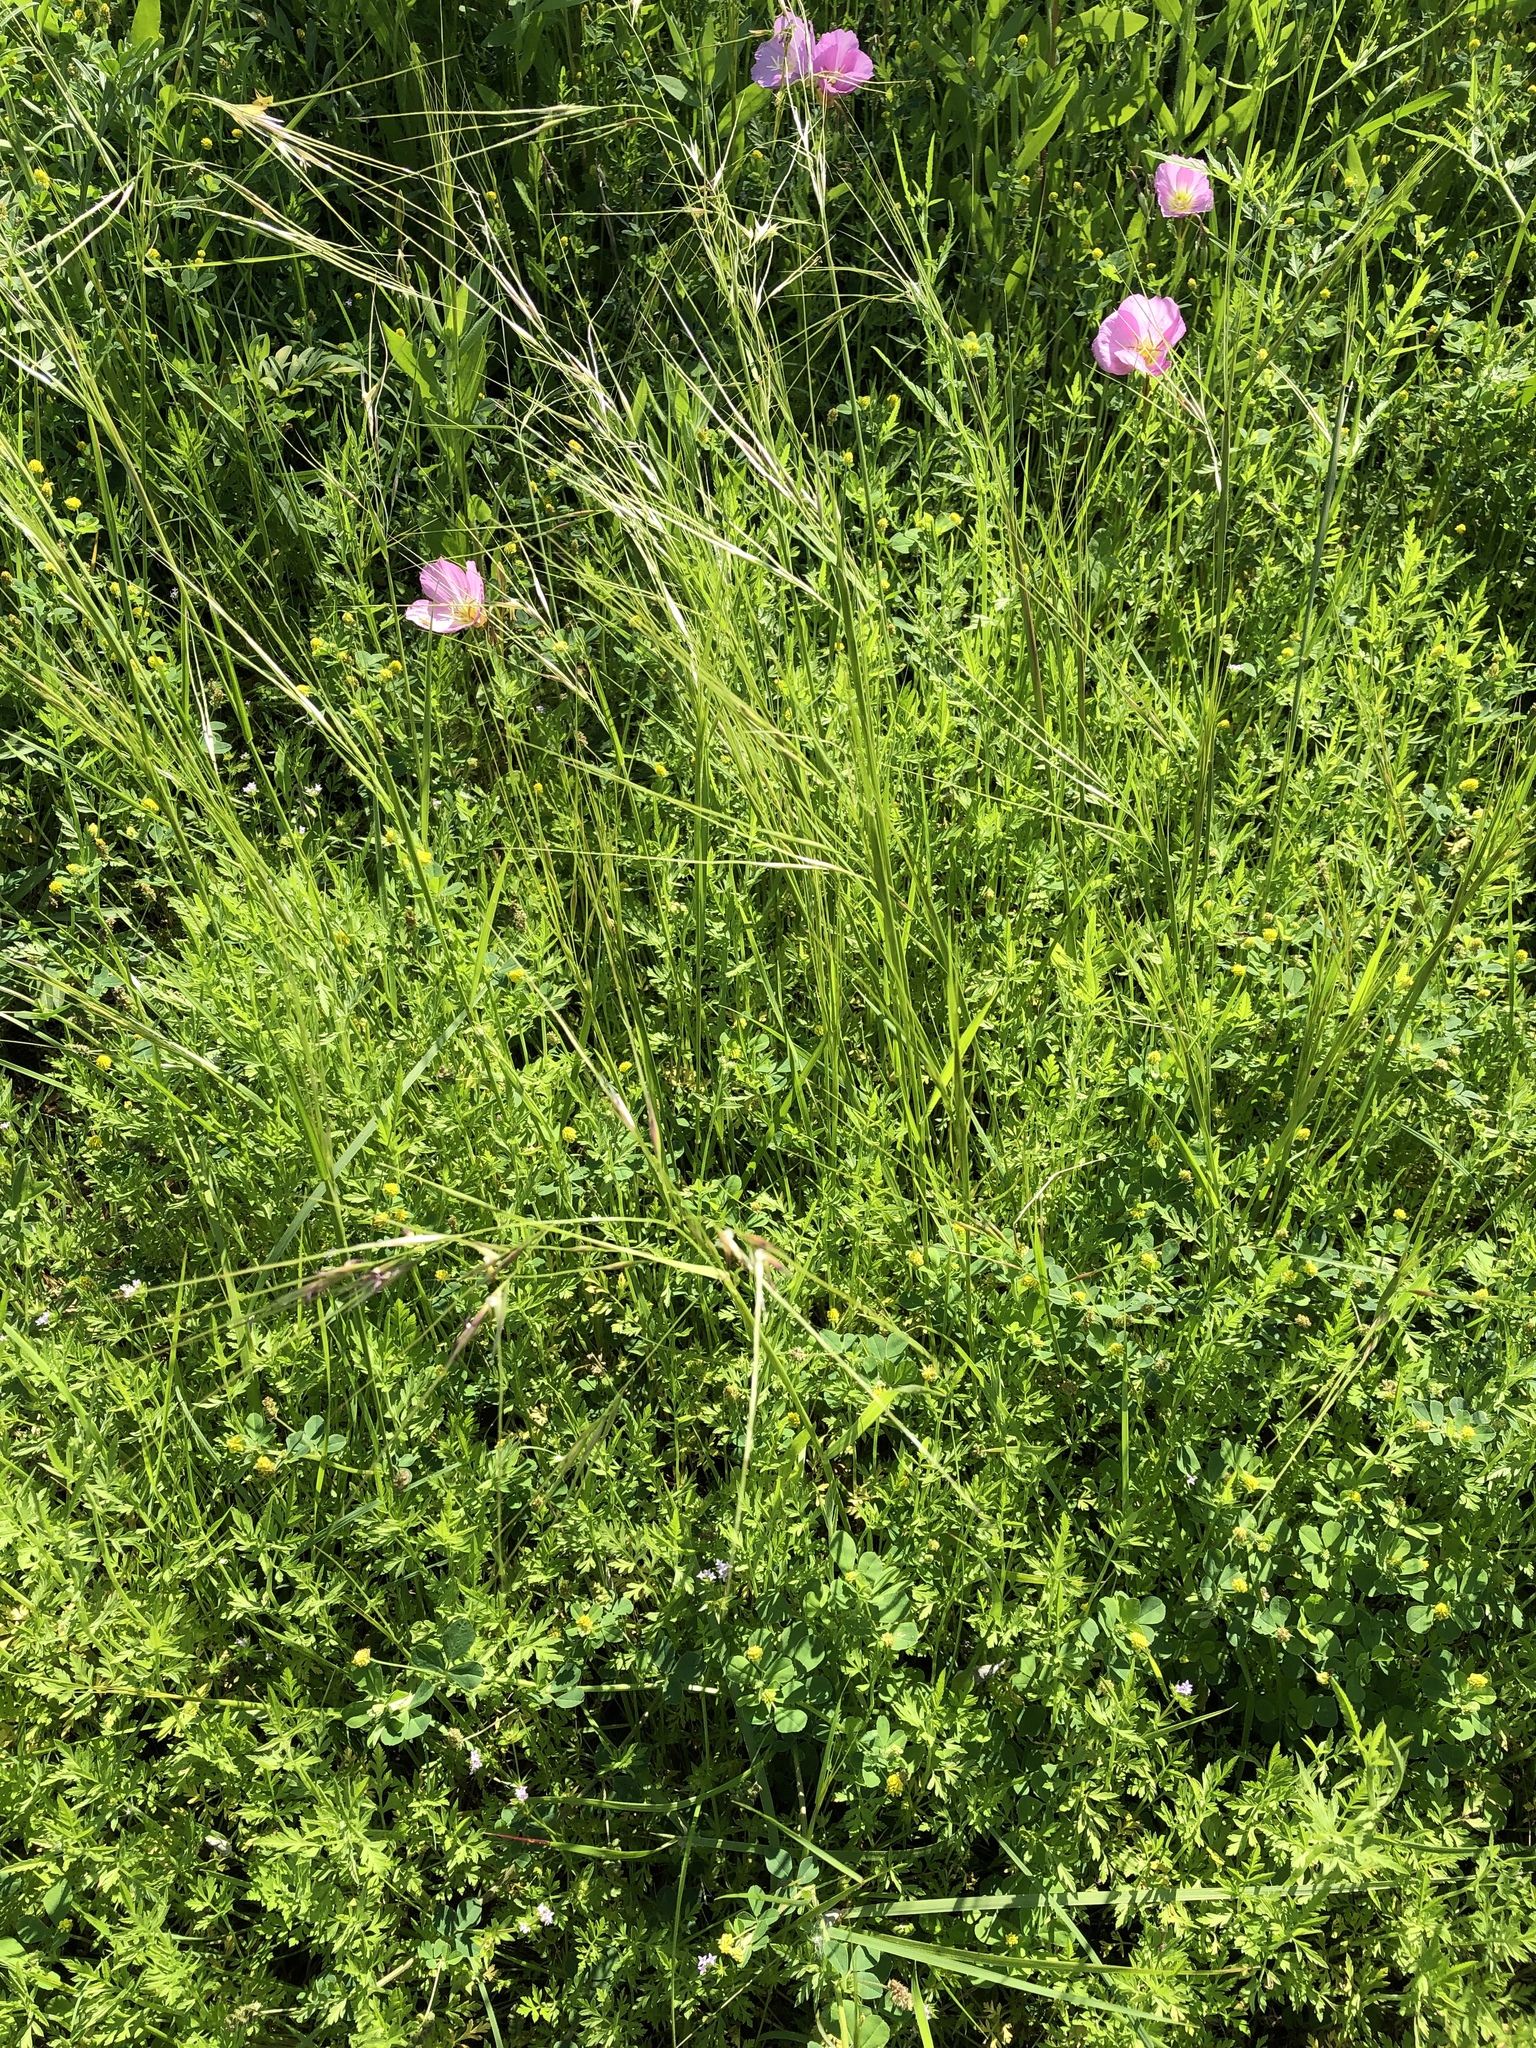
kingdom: Plantae
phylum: Tracheophyta
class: Liliopsida
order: Poales
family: Poaceae
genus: Nassella
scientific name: Nassella leucotricha
